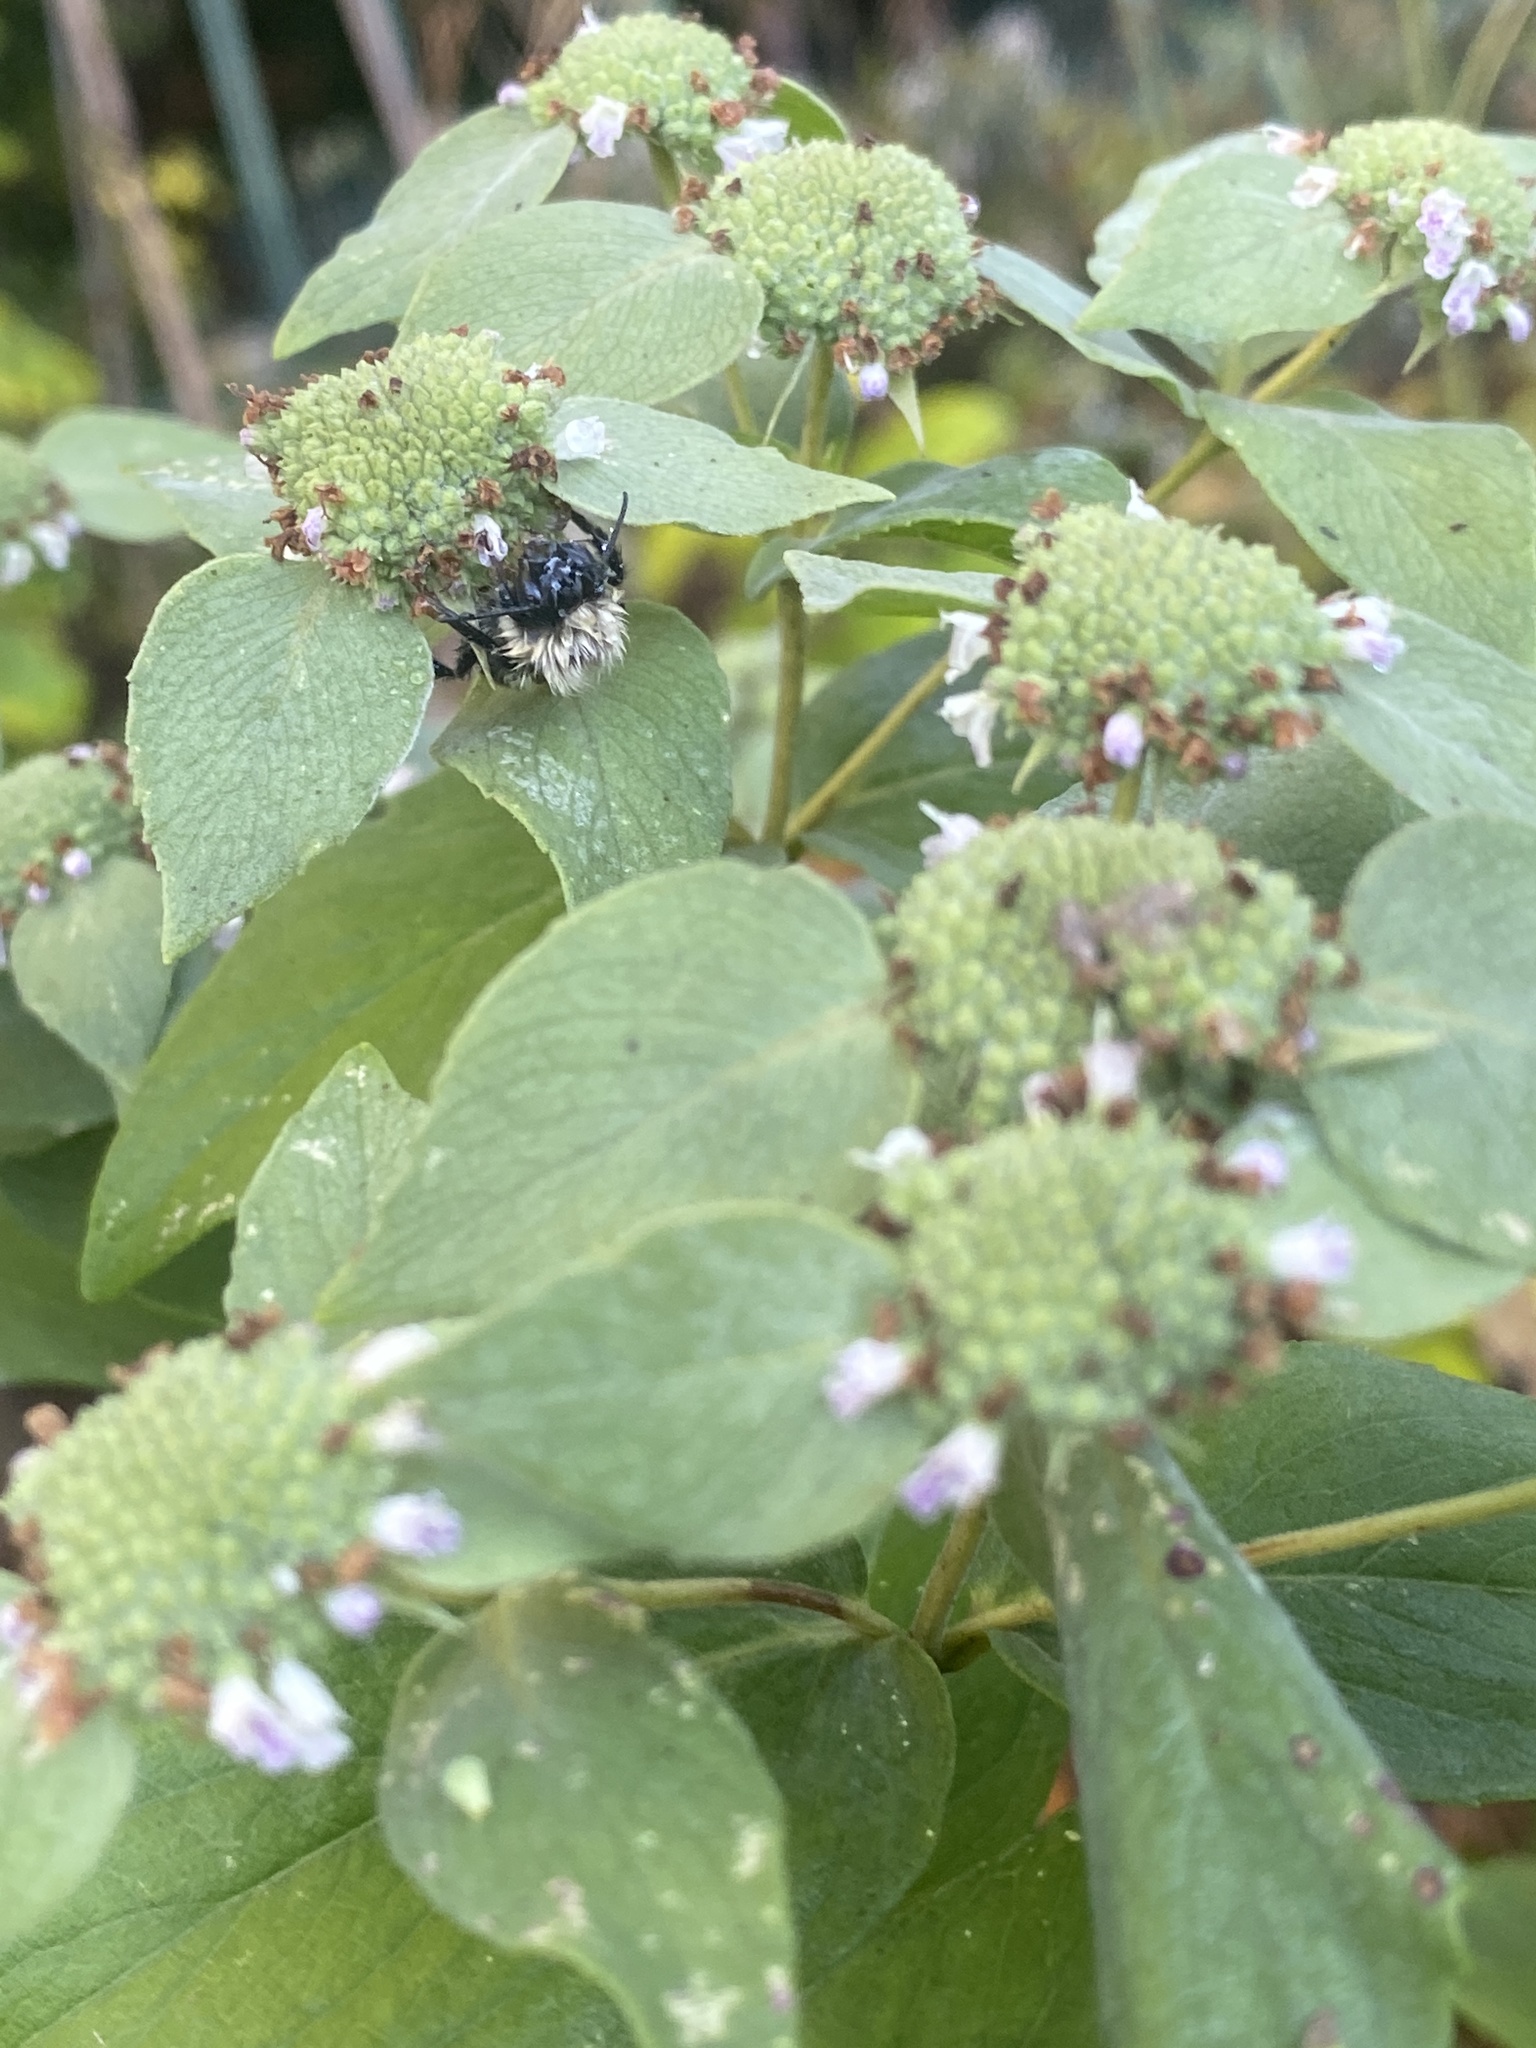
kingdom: Animalia
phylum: Arthropoda
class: Insecta
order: Hymenoptera
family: Apidae
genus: Bombus
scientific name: Bombus impatiens
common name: Common eastern bumble bee
